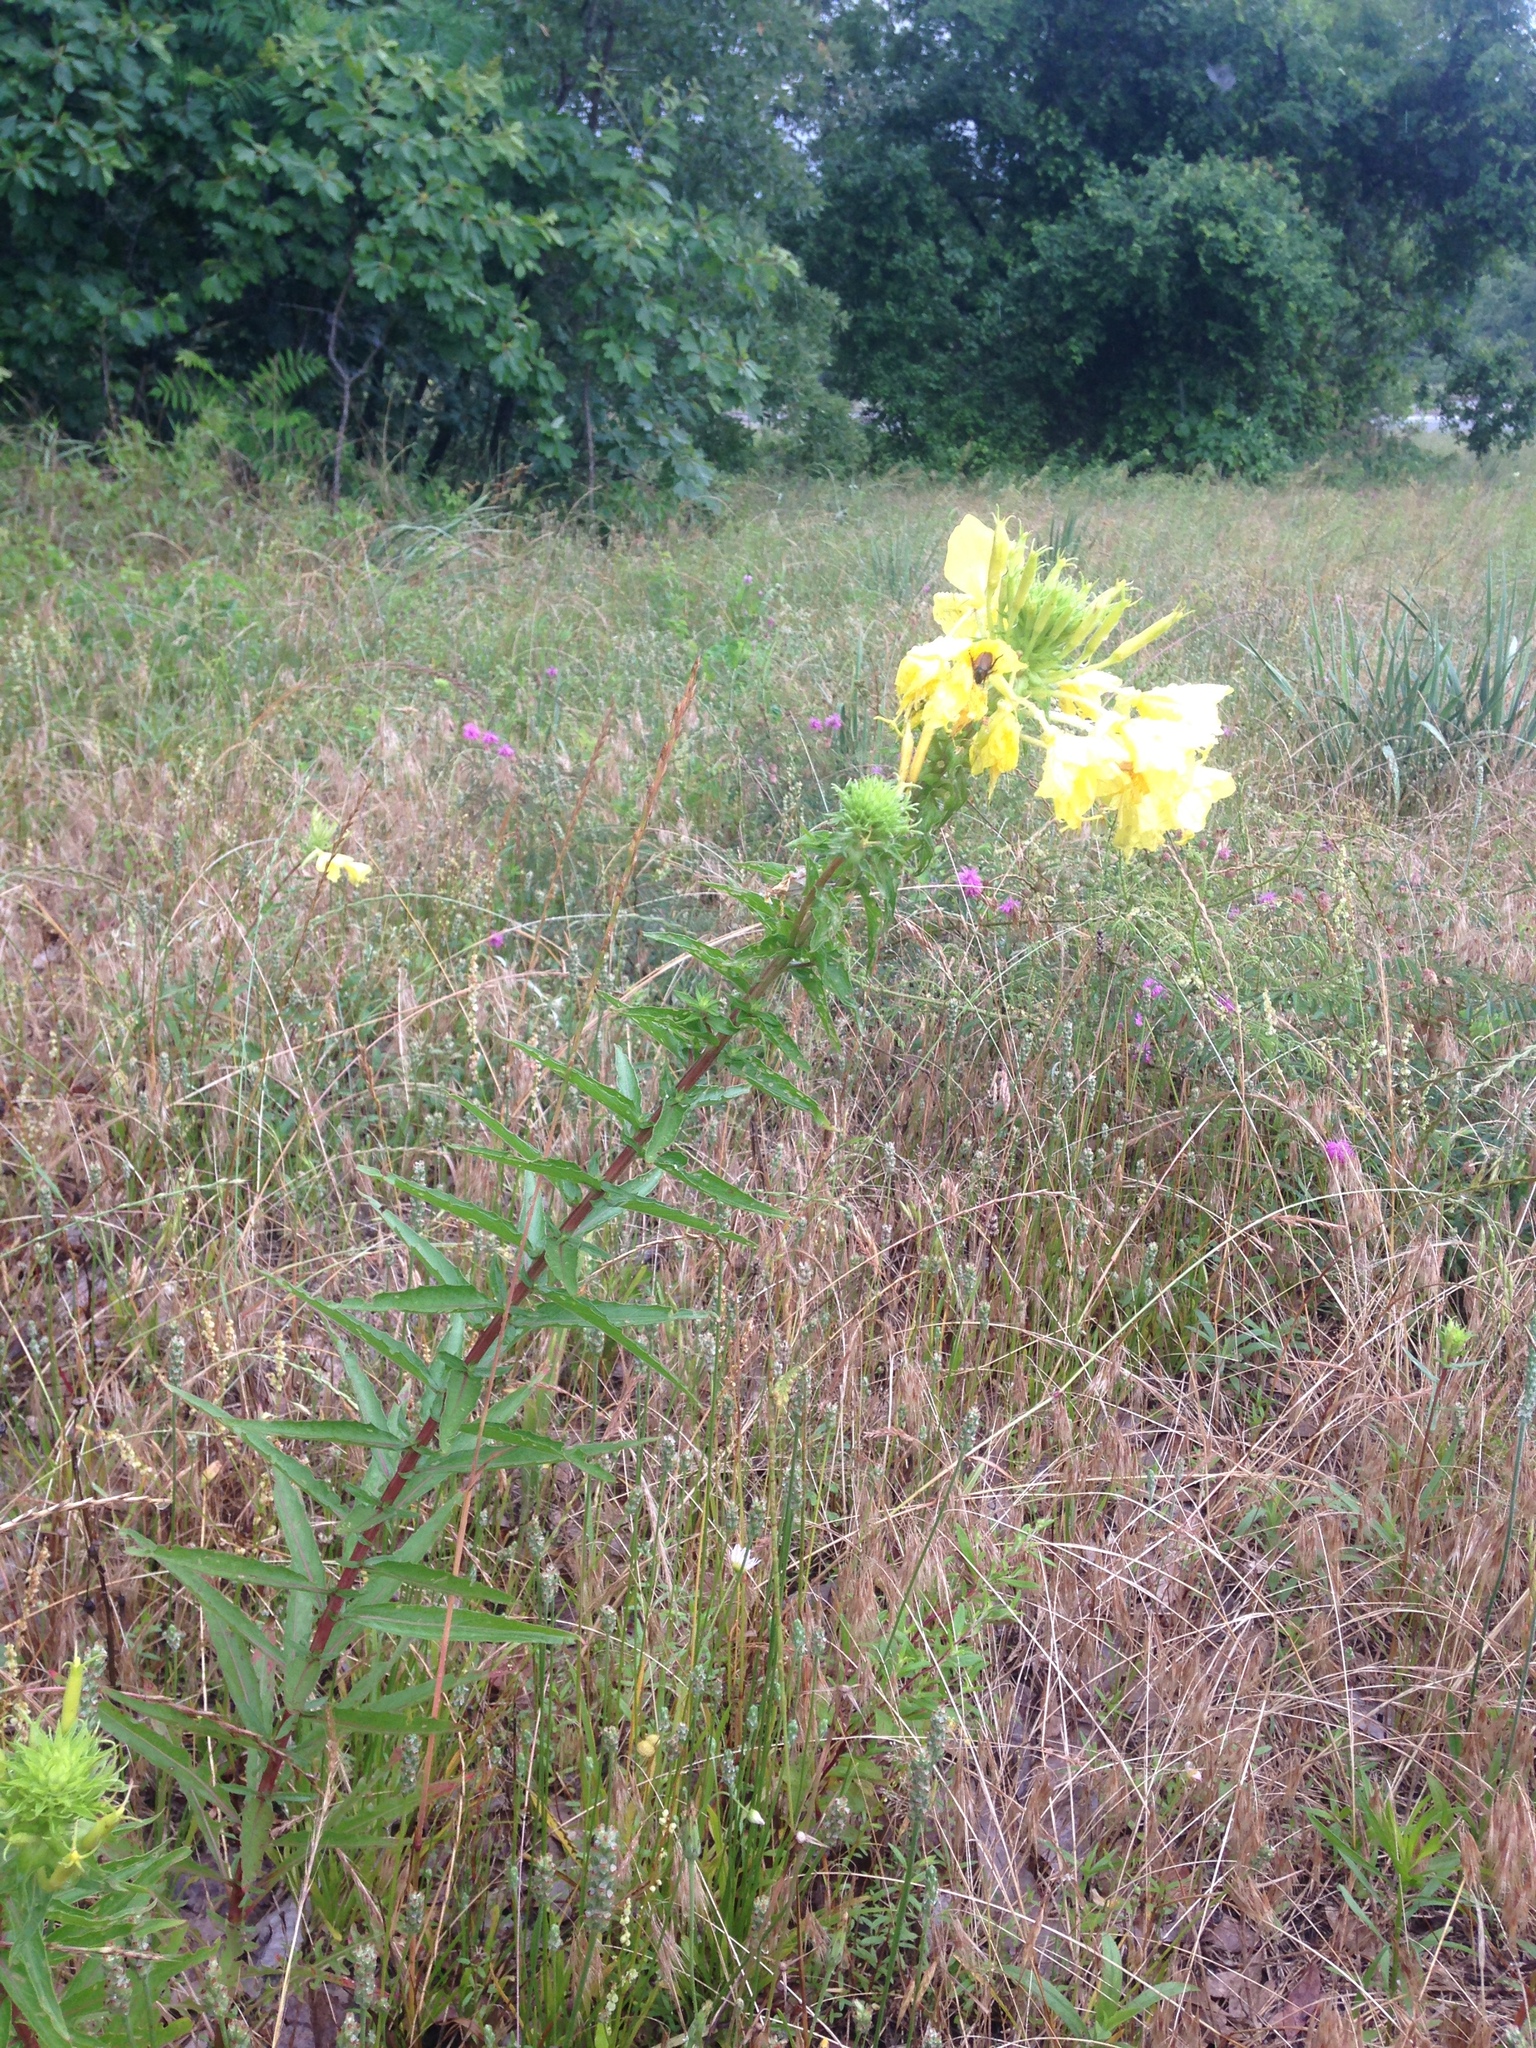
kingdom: Plantae
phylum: Tracheophyta
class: Magnoliopsida
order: Myrtales
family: Onagraceae
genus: Oenothera
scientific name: Oenothera rhombipetala
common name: Four-points evening-primrose
